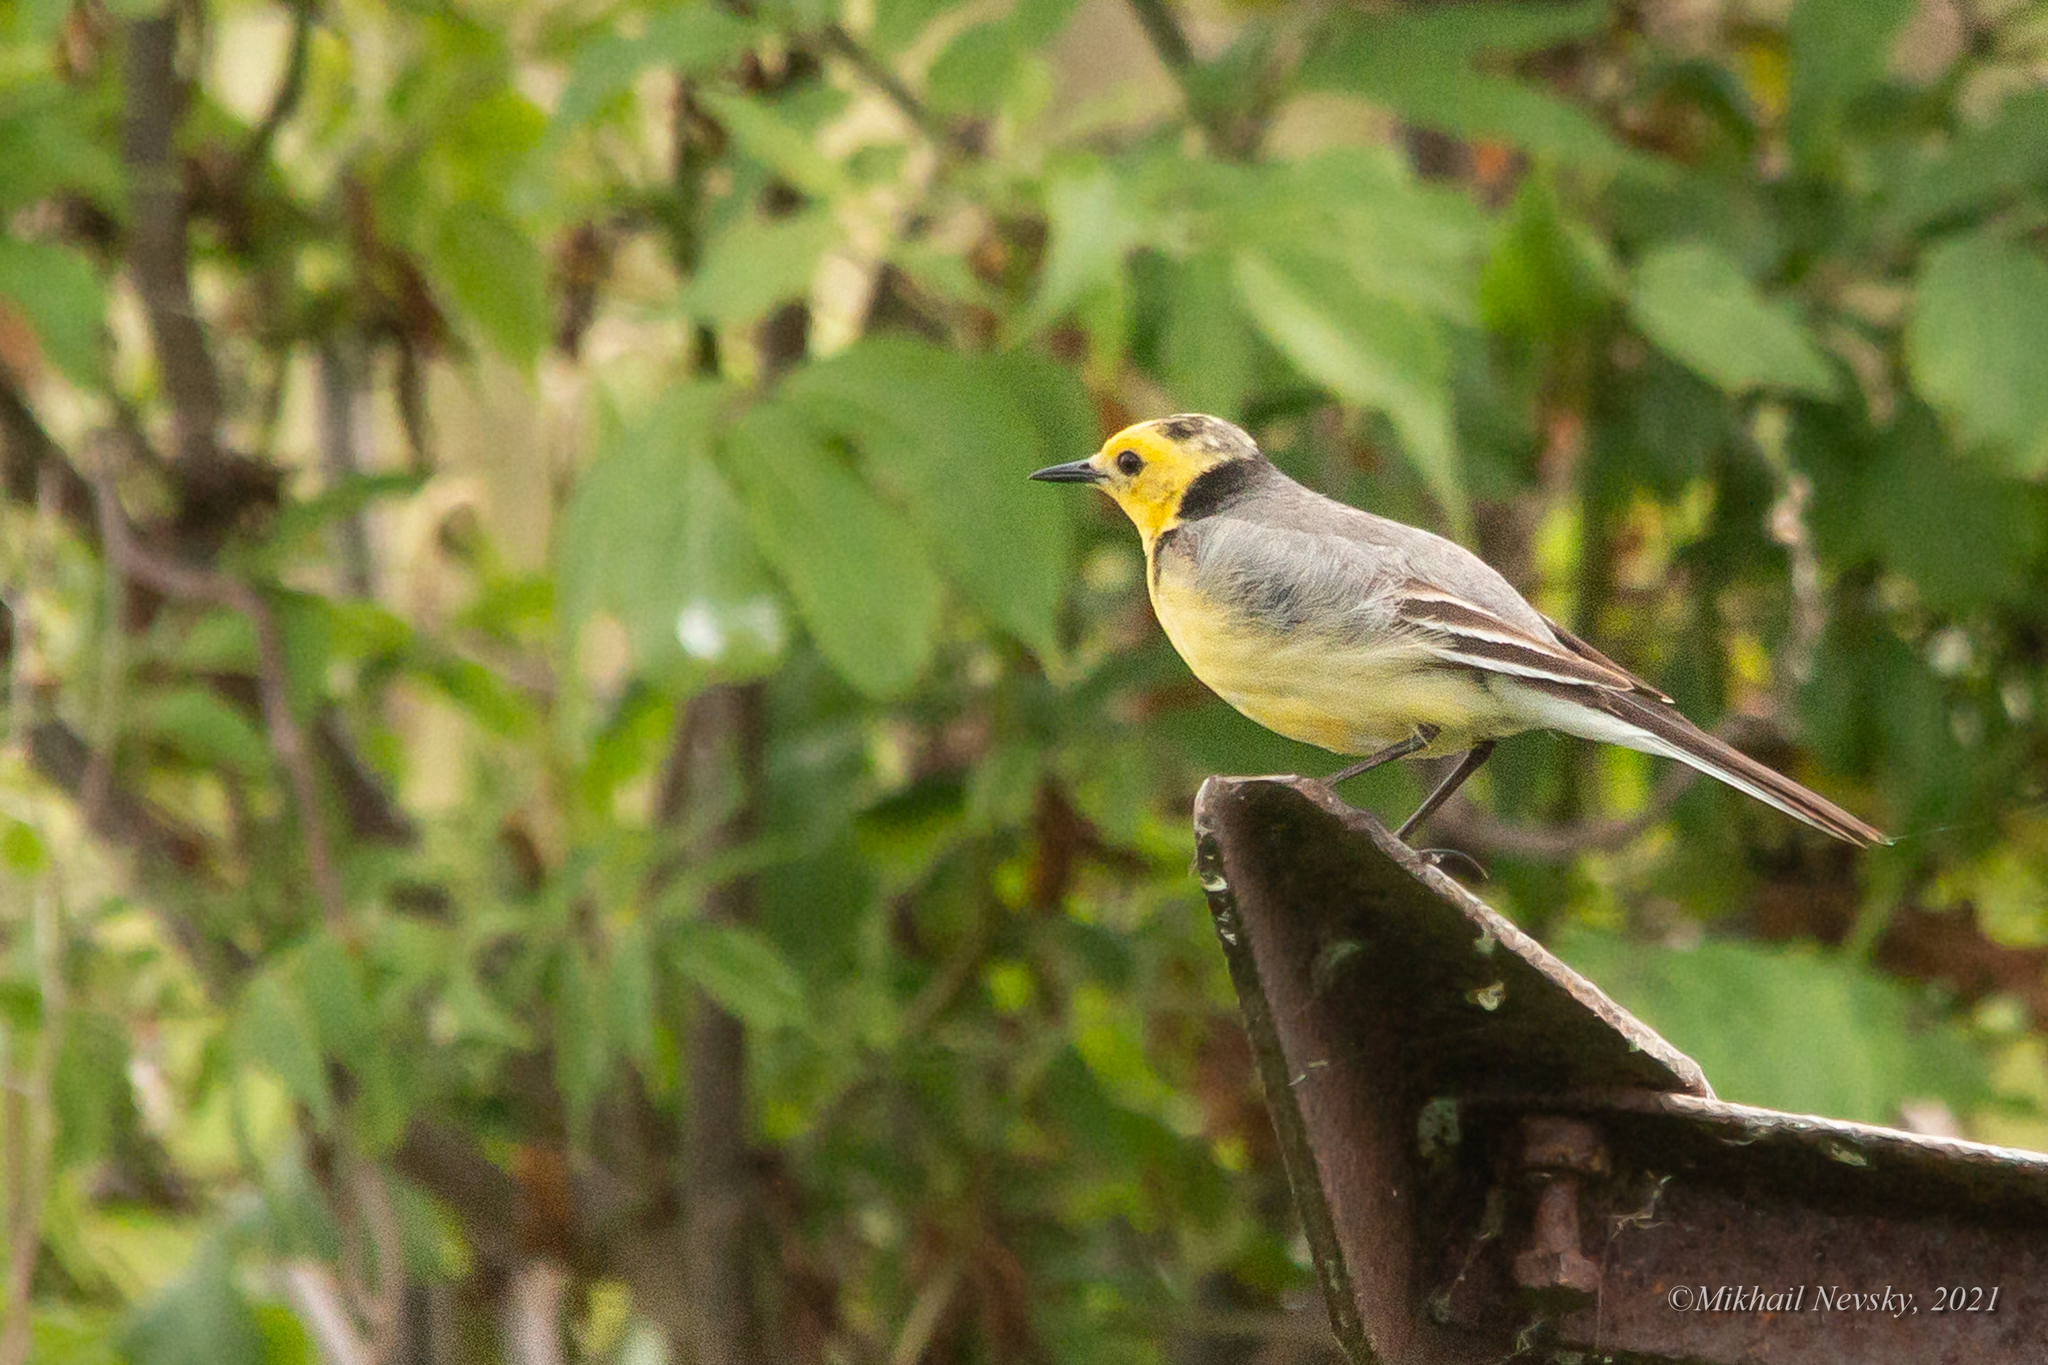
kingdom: Animalia
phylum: Chordata
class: Aves
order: Passeriformes
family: Motacillidae
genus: Motacilla
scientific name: Motacilla citreola
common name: Citrine wagtail
